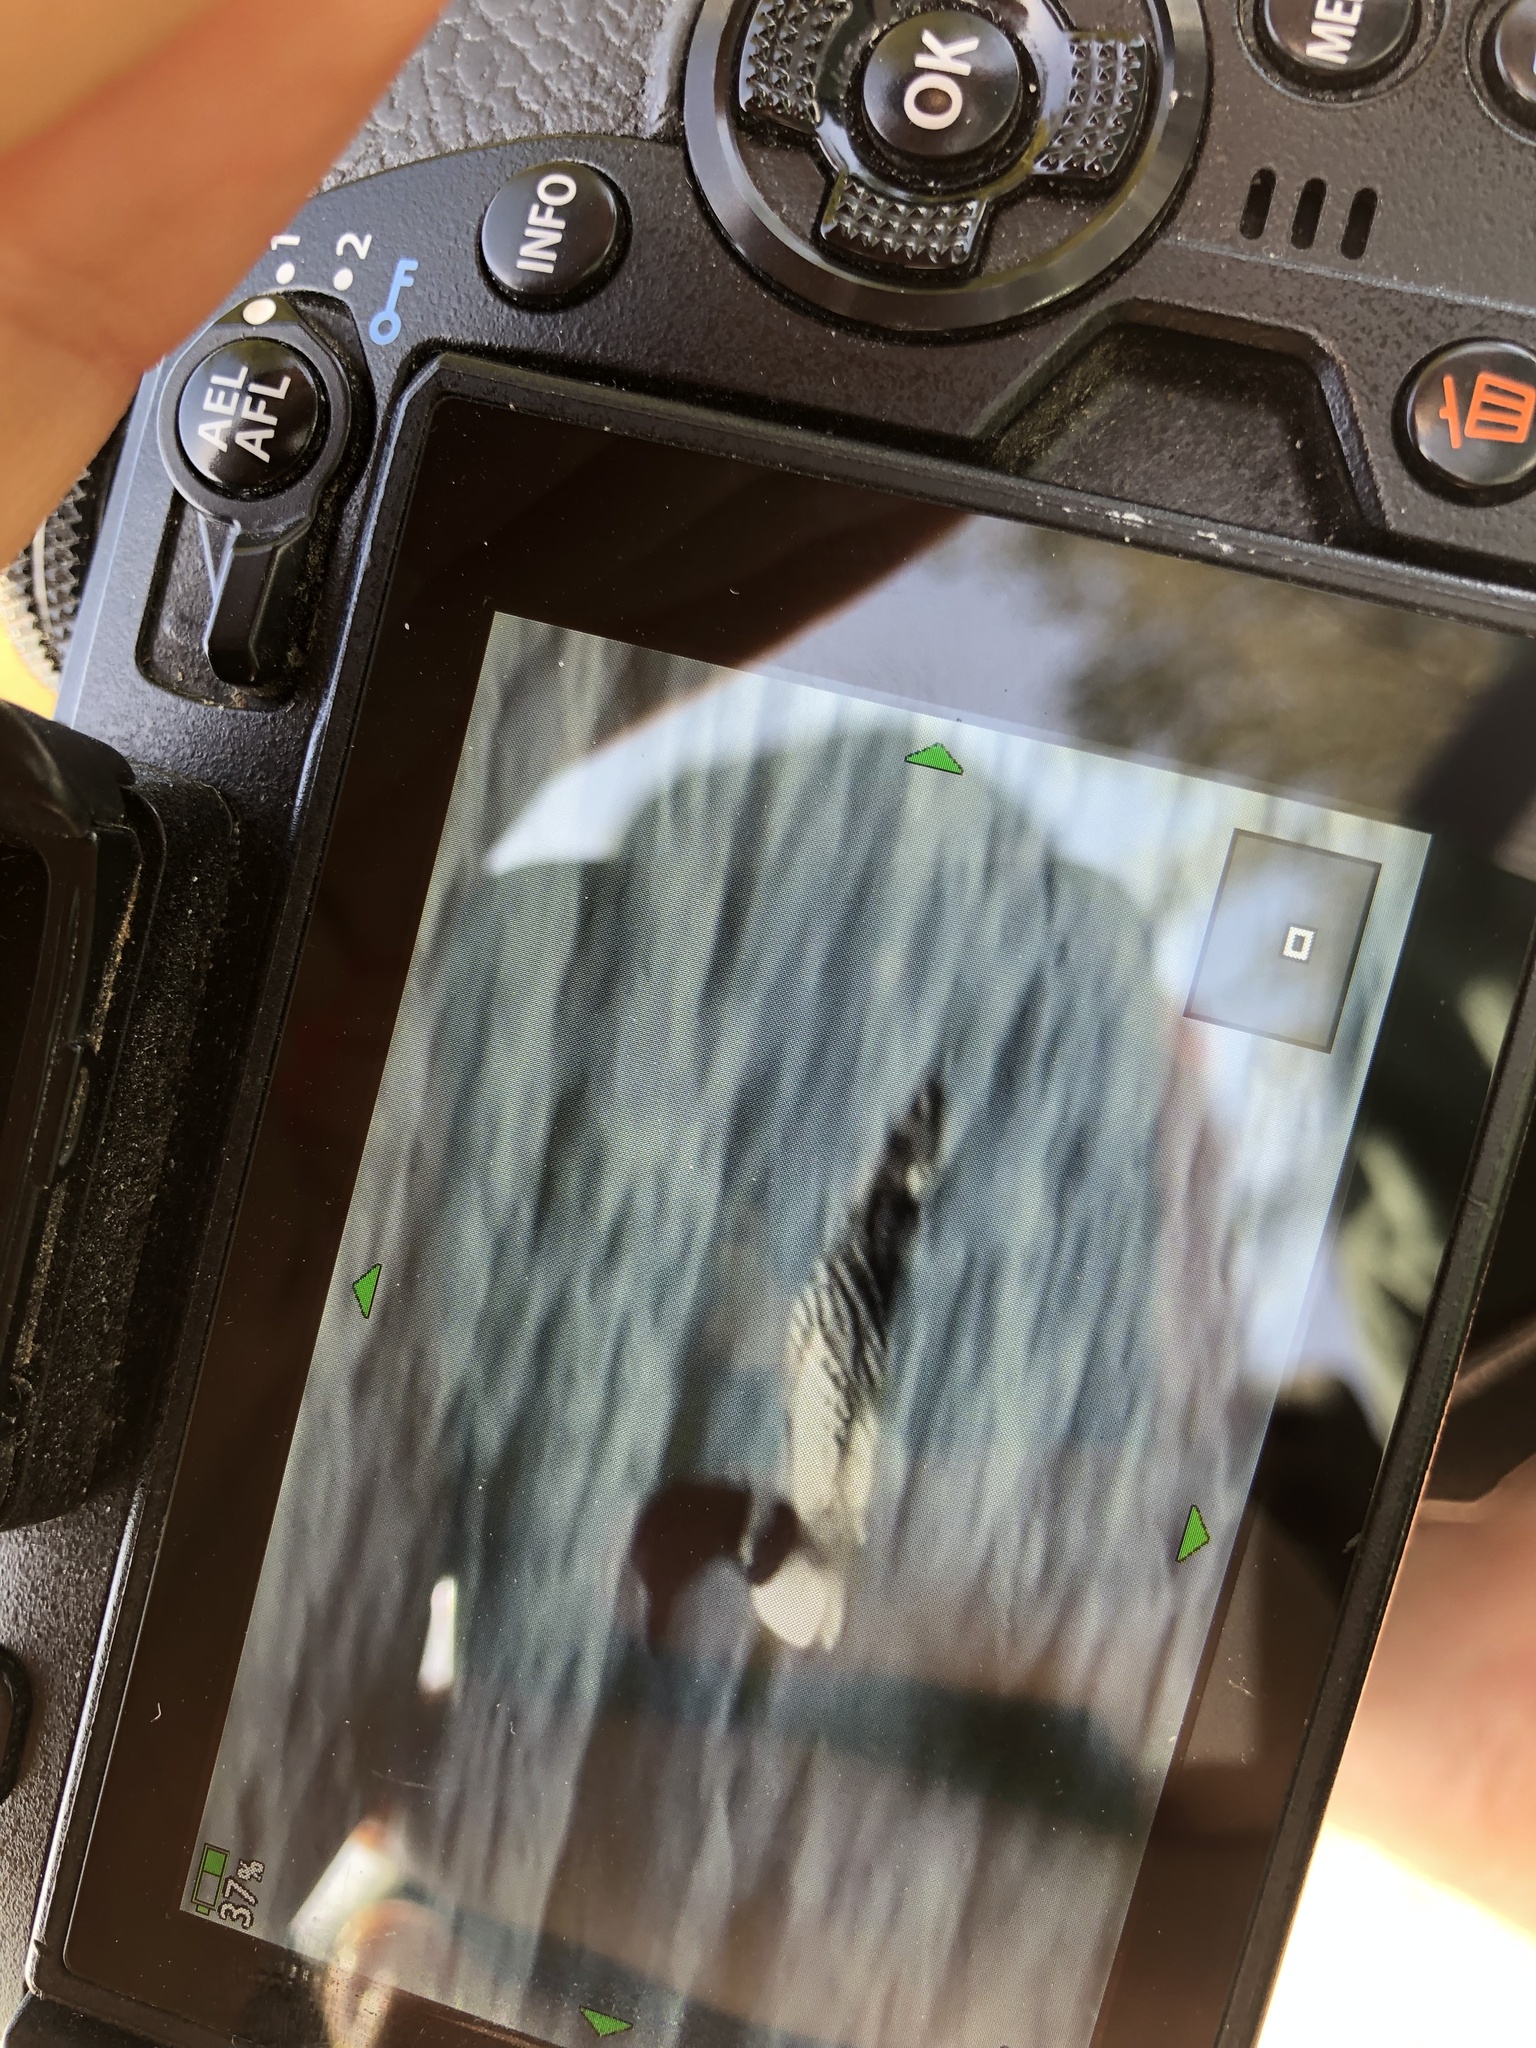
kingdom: Animalia
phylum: Chordata
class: Aves
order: Gaviiformes
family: Gaviidae
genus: Gavia
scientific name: Gavia immer
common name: Common loon
